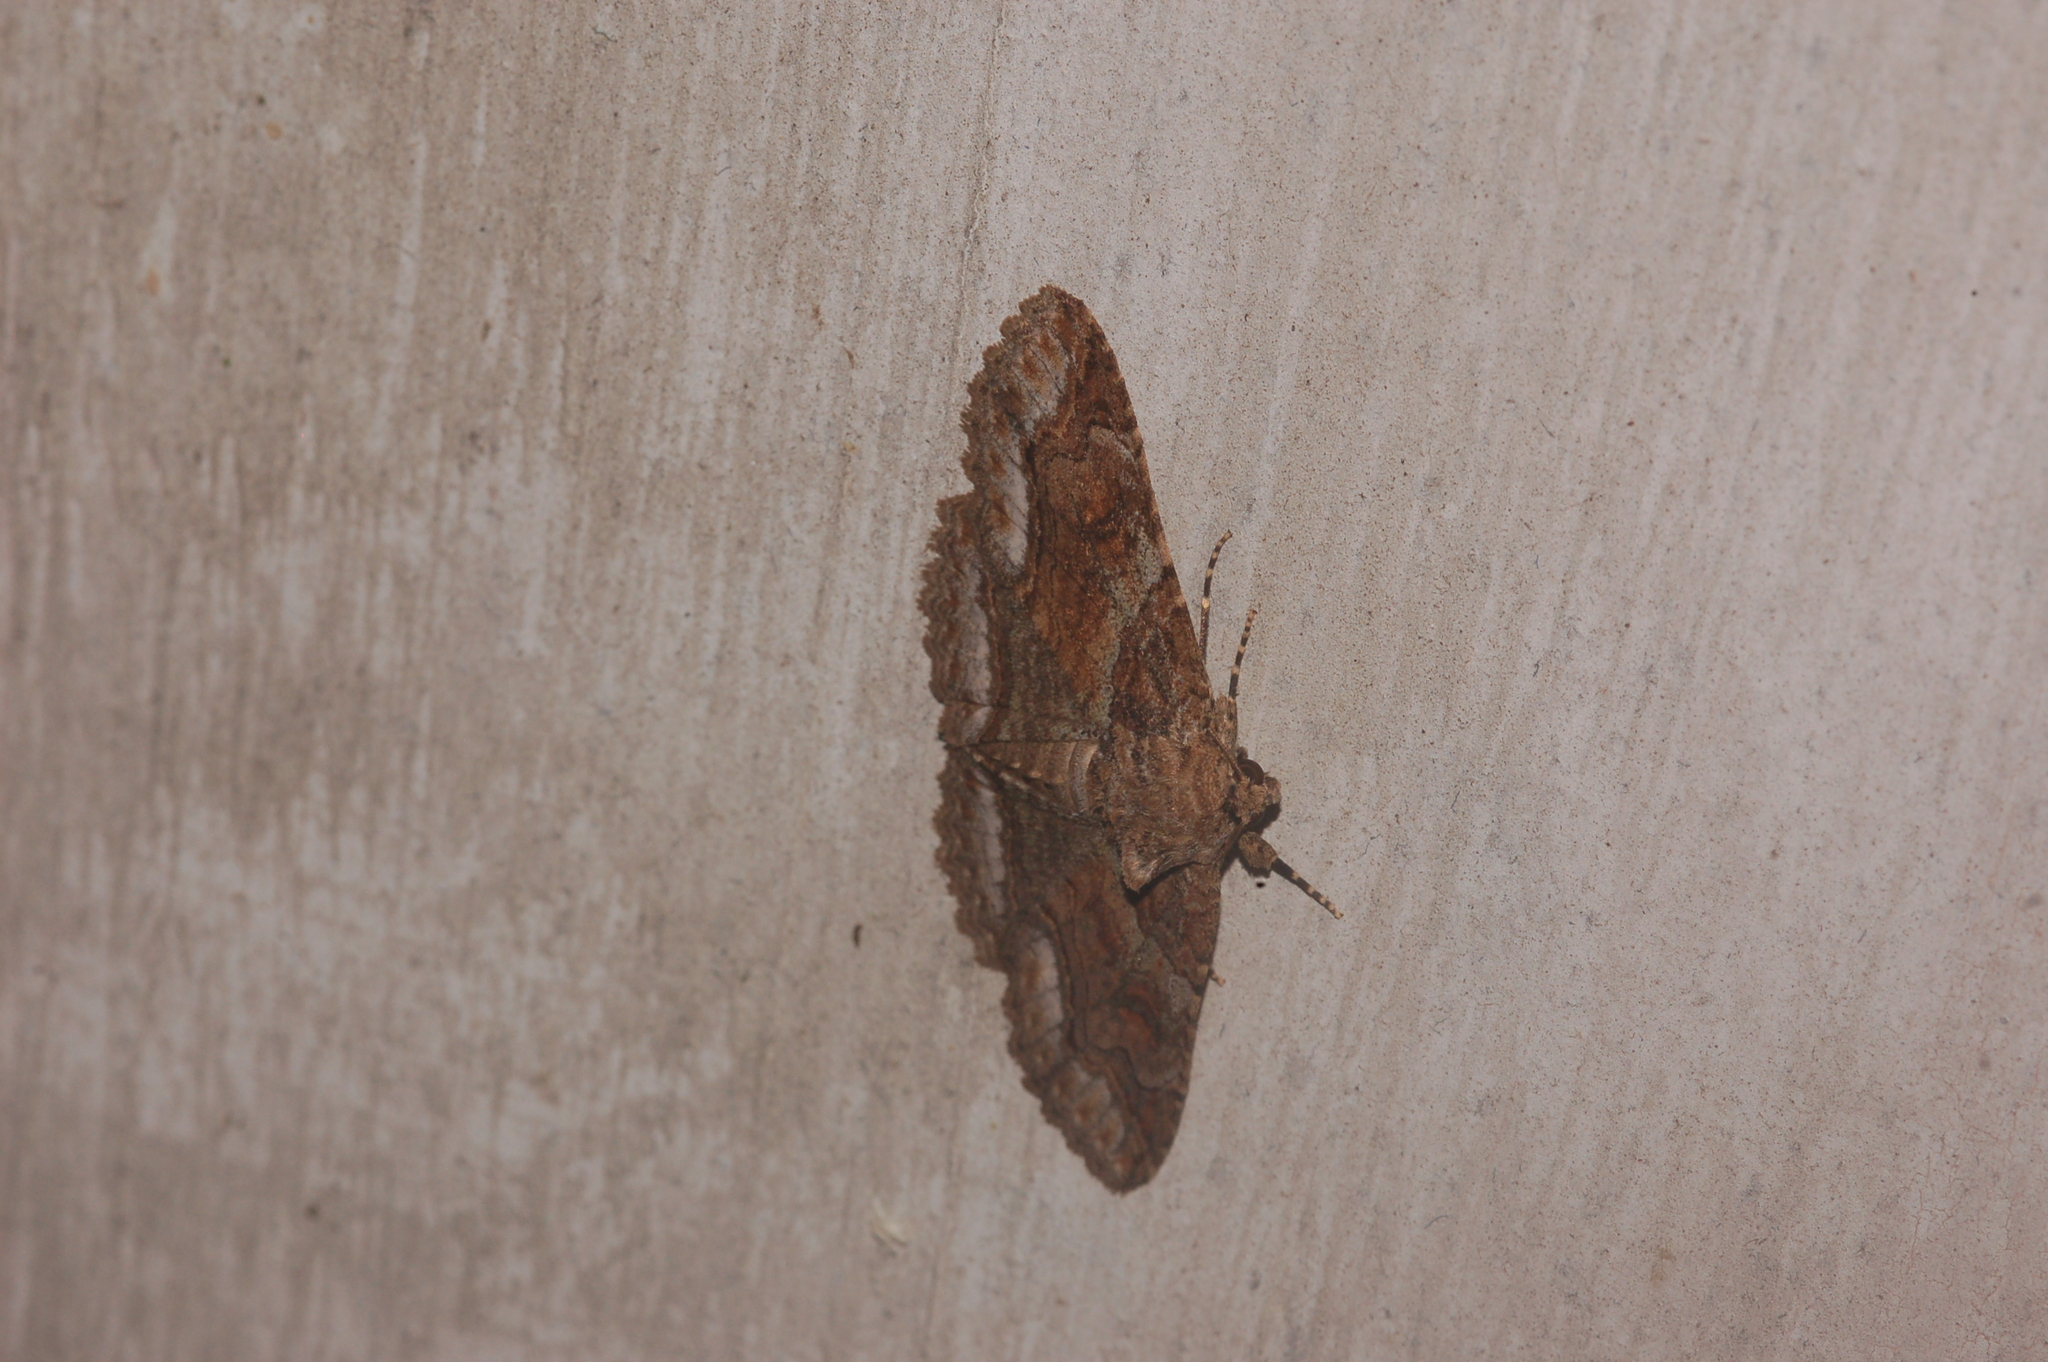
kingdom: Animalia
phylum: Arthropoda
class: Insecta
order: Lepidoptera
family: Erebidae
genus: Zale
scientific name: Zale galbanata
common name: Maple zale
